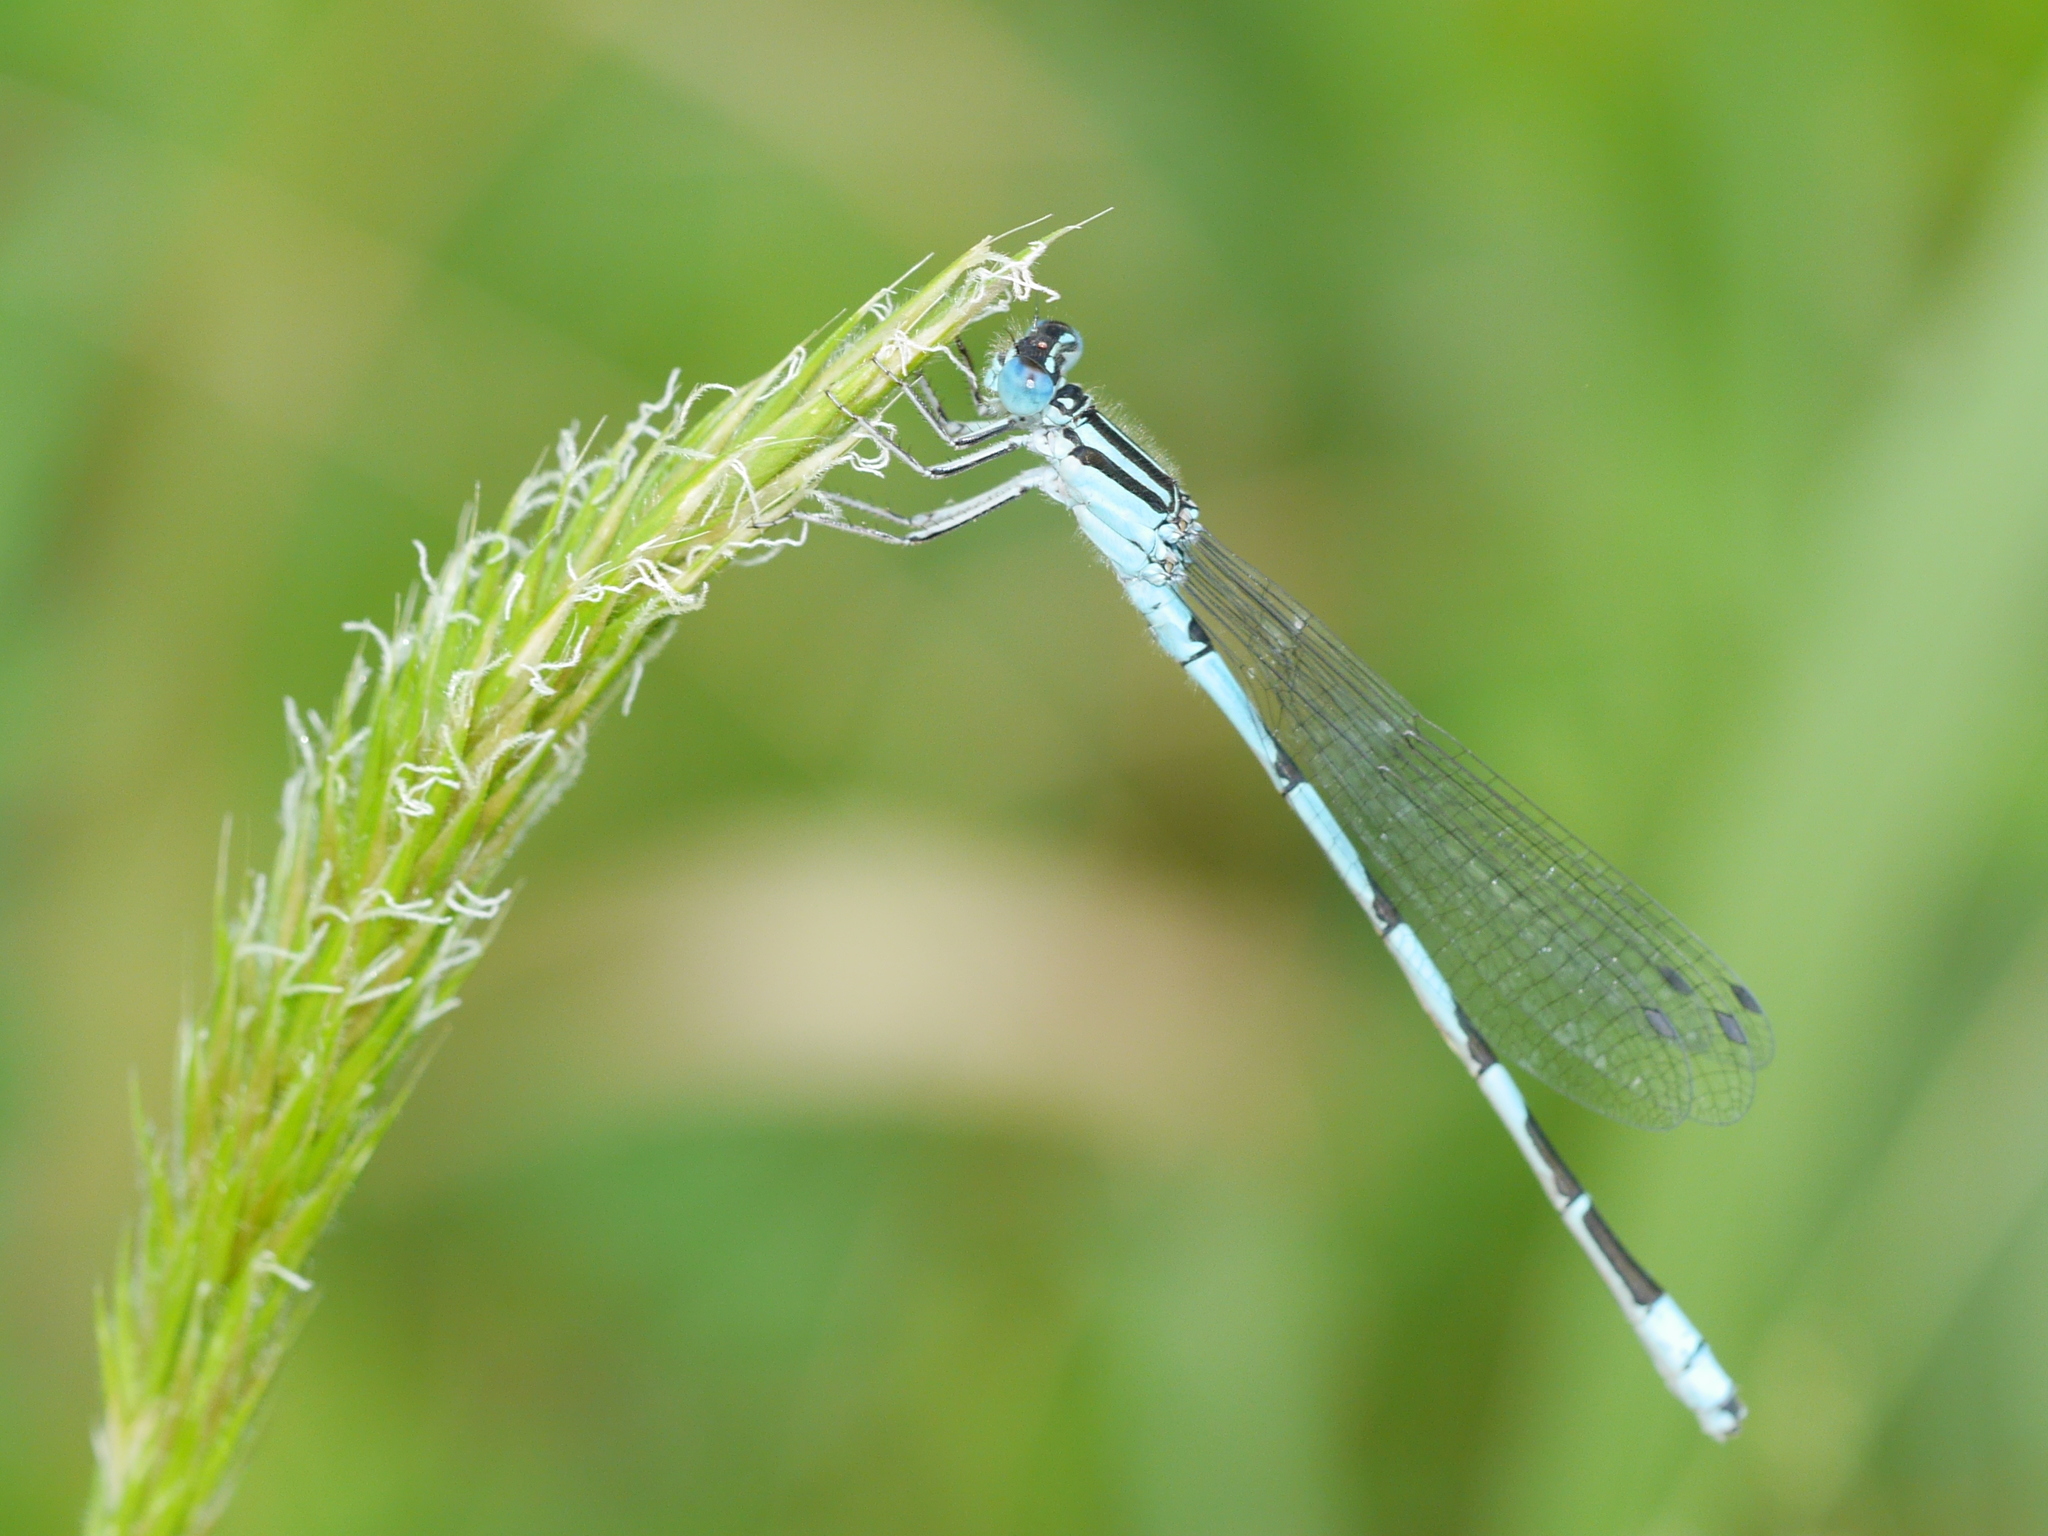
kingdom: Animalia
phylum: Arthropoda
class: Insecta
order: Odonata
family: Coenagrionidae
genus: Enallagma
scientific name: Enallagma durum
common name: Big bluet
